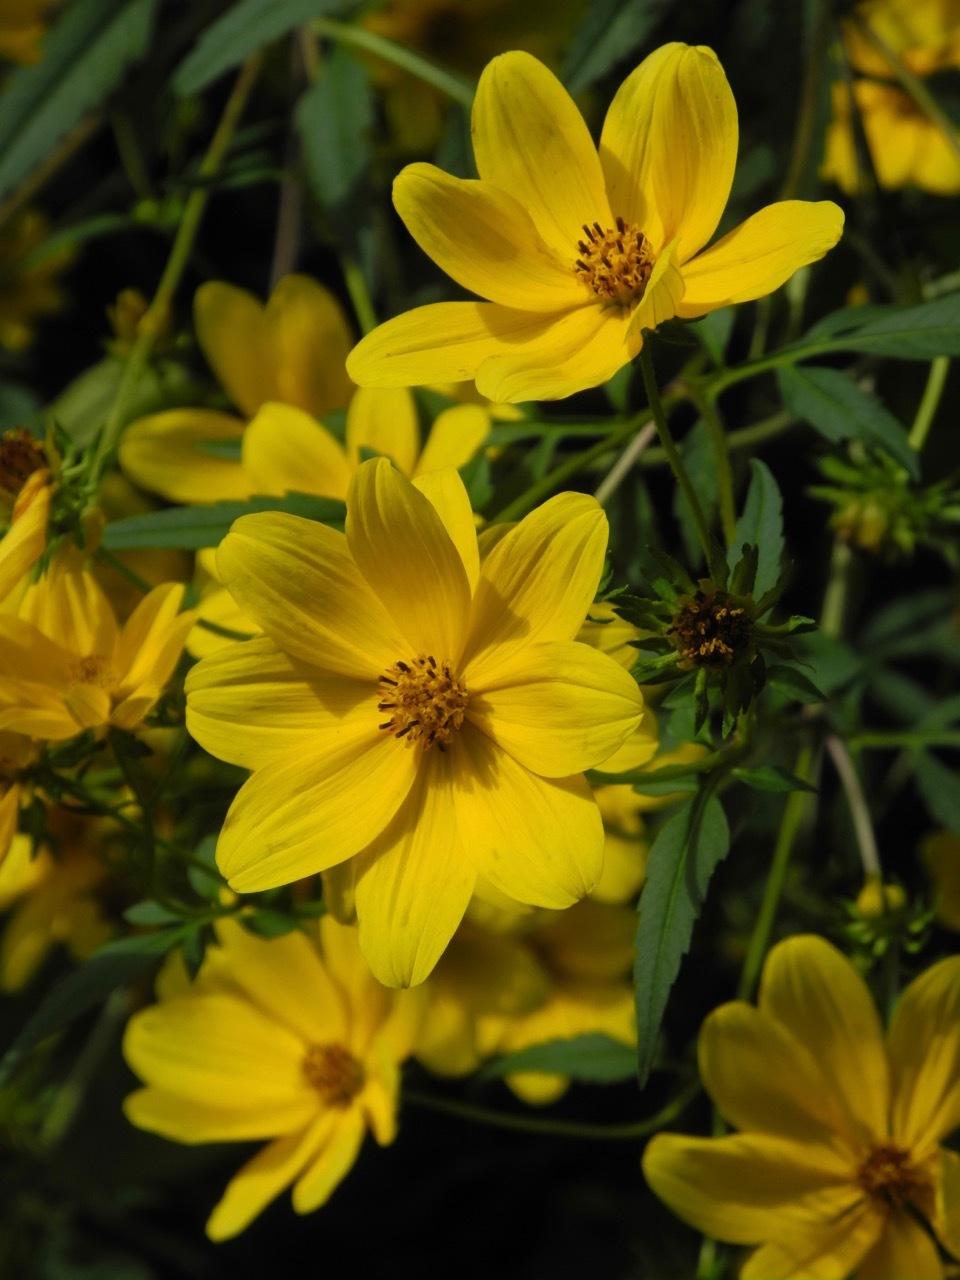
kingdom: Plantae
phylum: Tracheophyta
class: Magnoliopsida
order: Asterales
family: Asteraceae
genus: Bidens
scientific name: Bidens polylepis
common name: Awnless beggarticks
